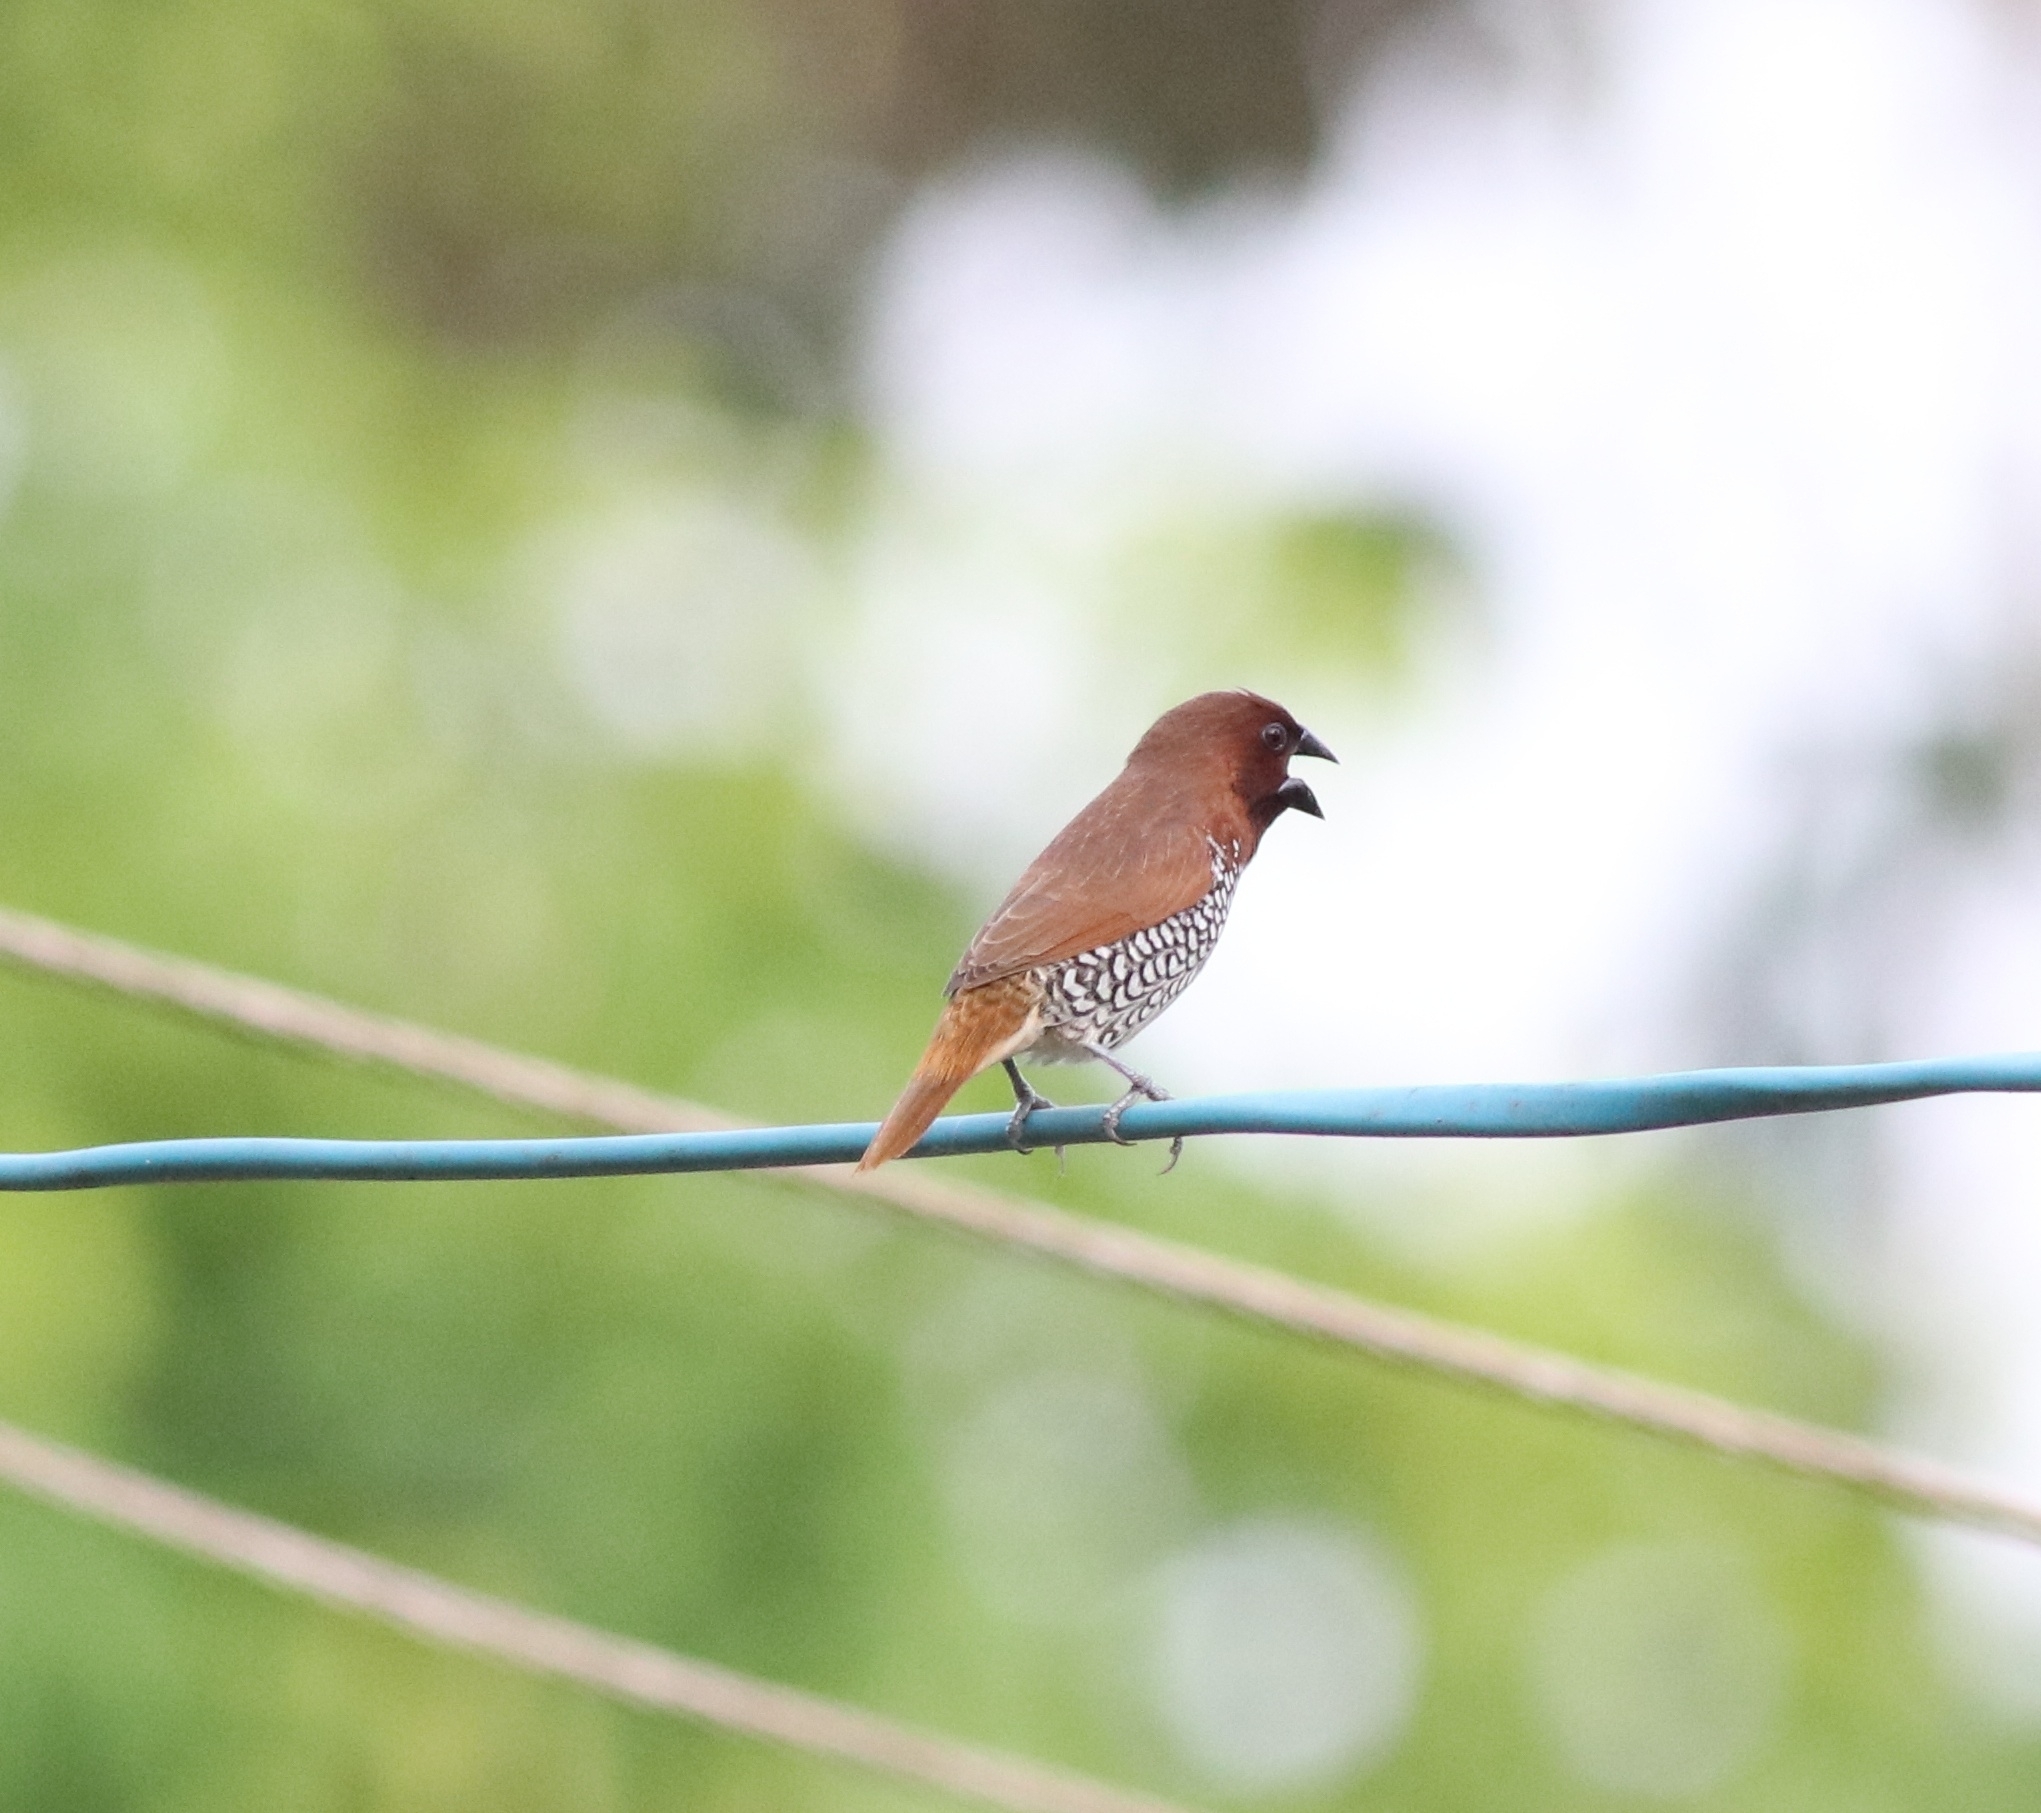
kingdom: Animalia
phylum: Chordata
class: Aves
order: Passeriformes
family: Estrildidae
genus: Lonchura
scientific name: Lonchura punctulata
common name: Scaly-breasted munia
